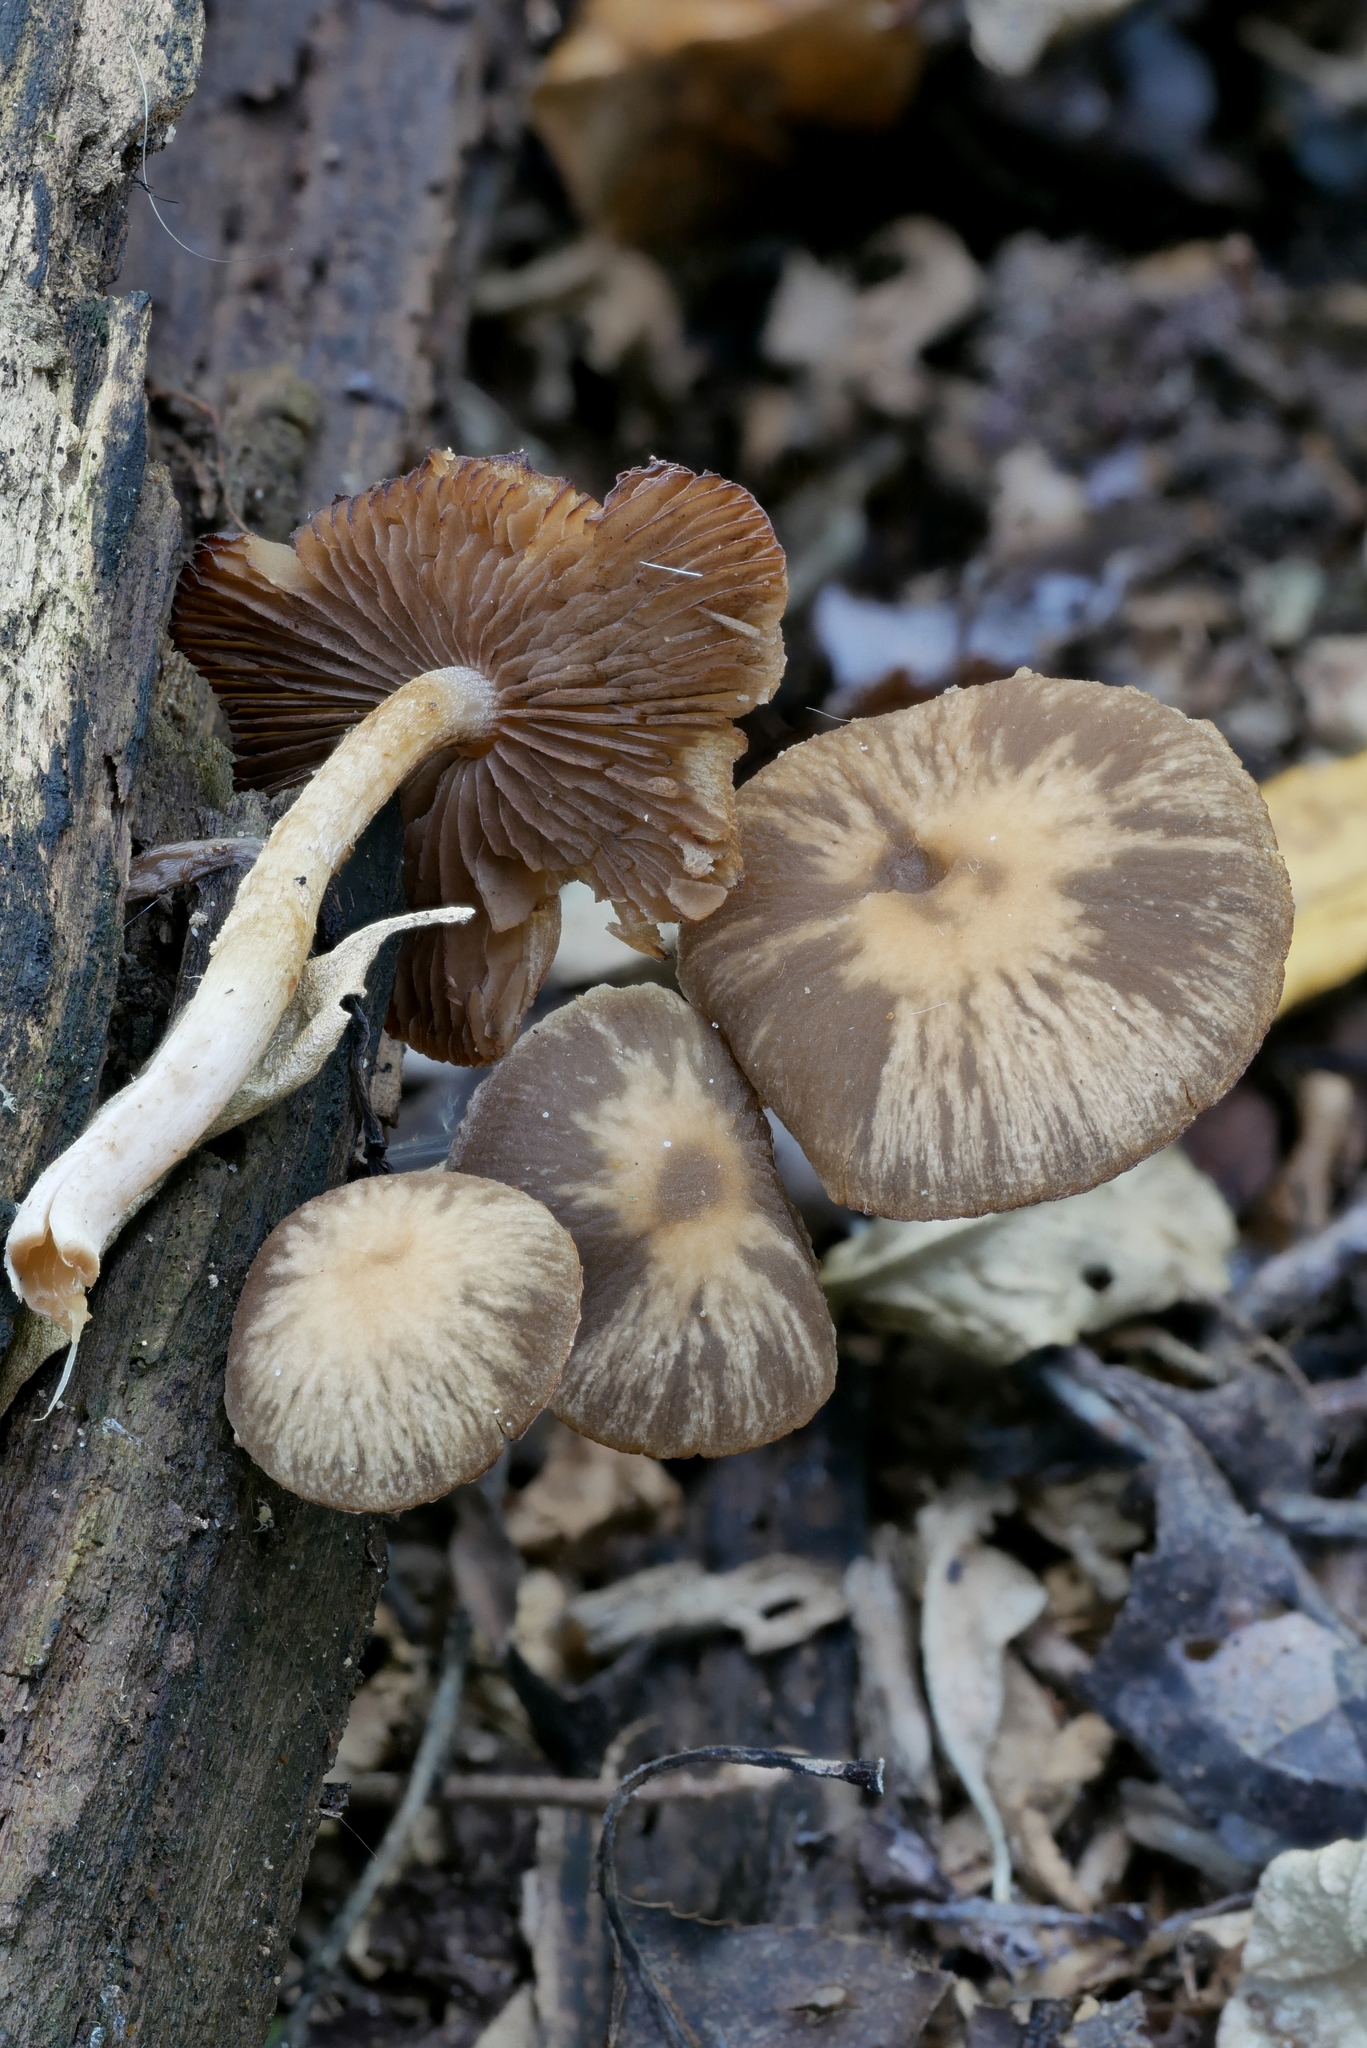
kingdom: Fungi
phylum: Basidiomycota
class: Agaricomycetes
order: Agaricales
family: Psathyrellaceae
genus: Psathyrella
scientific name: Psathyrella spintrigeroides
